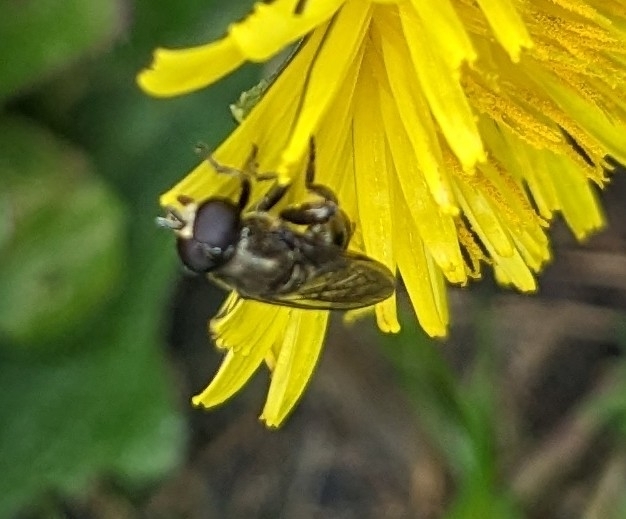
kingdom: Animalia
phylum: Arthropoda
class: Insecta
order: Diptera
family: Syrphidae
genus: Eumerus
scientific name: Eumerus
